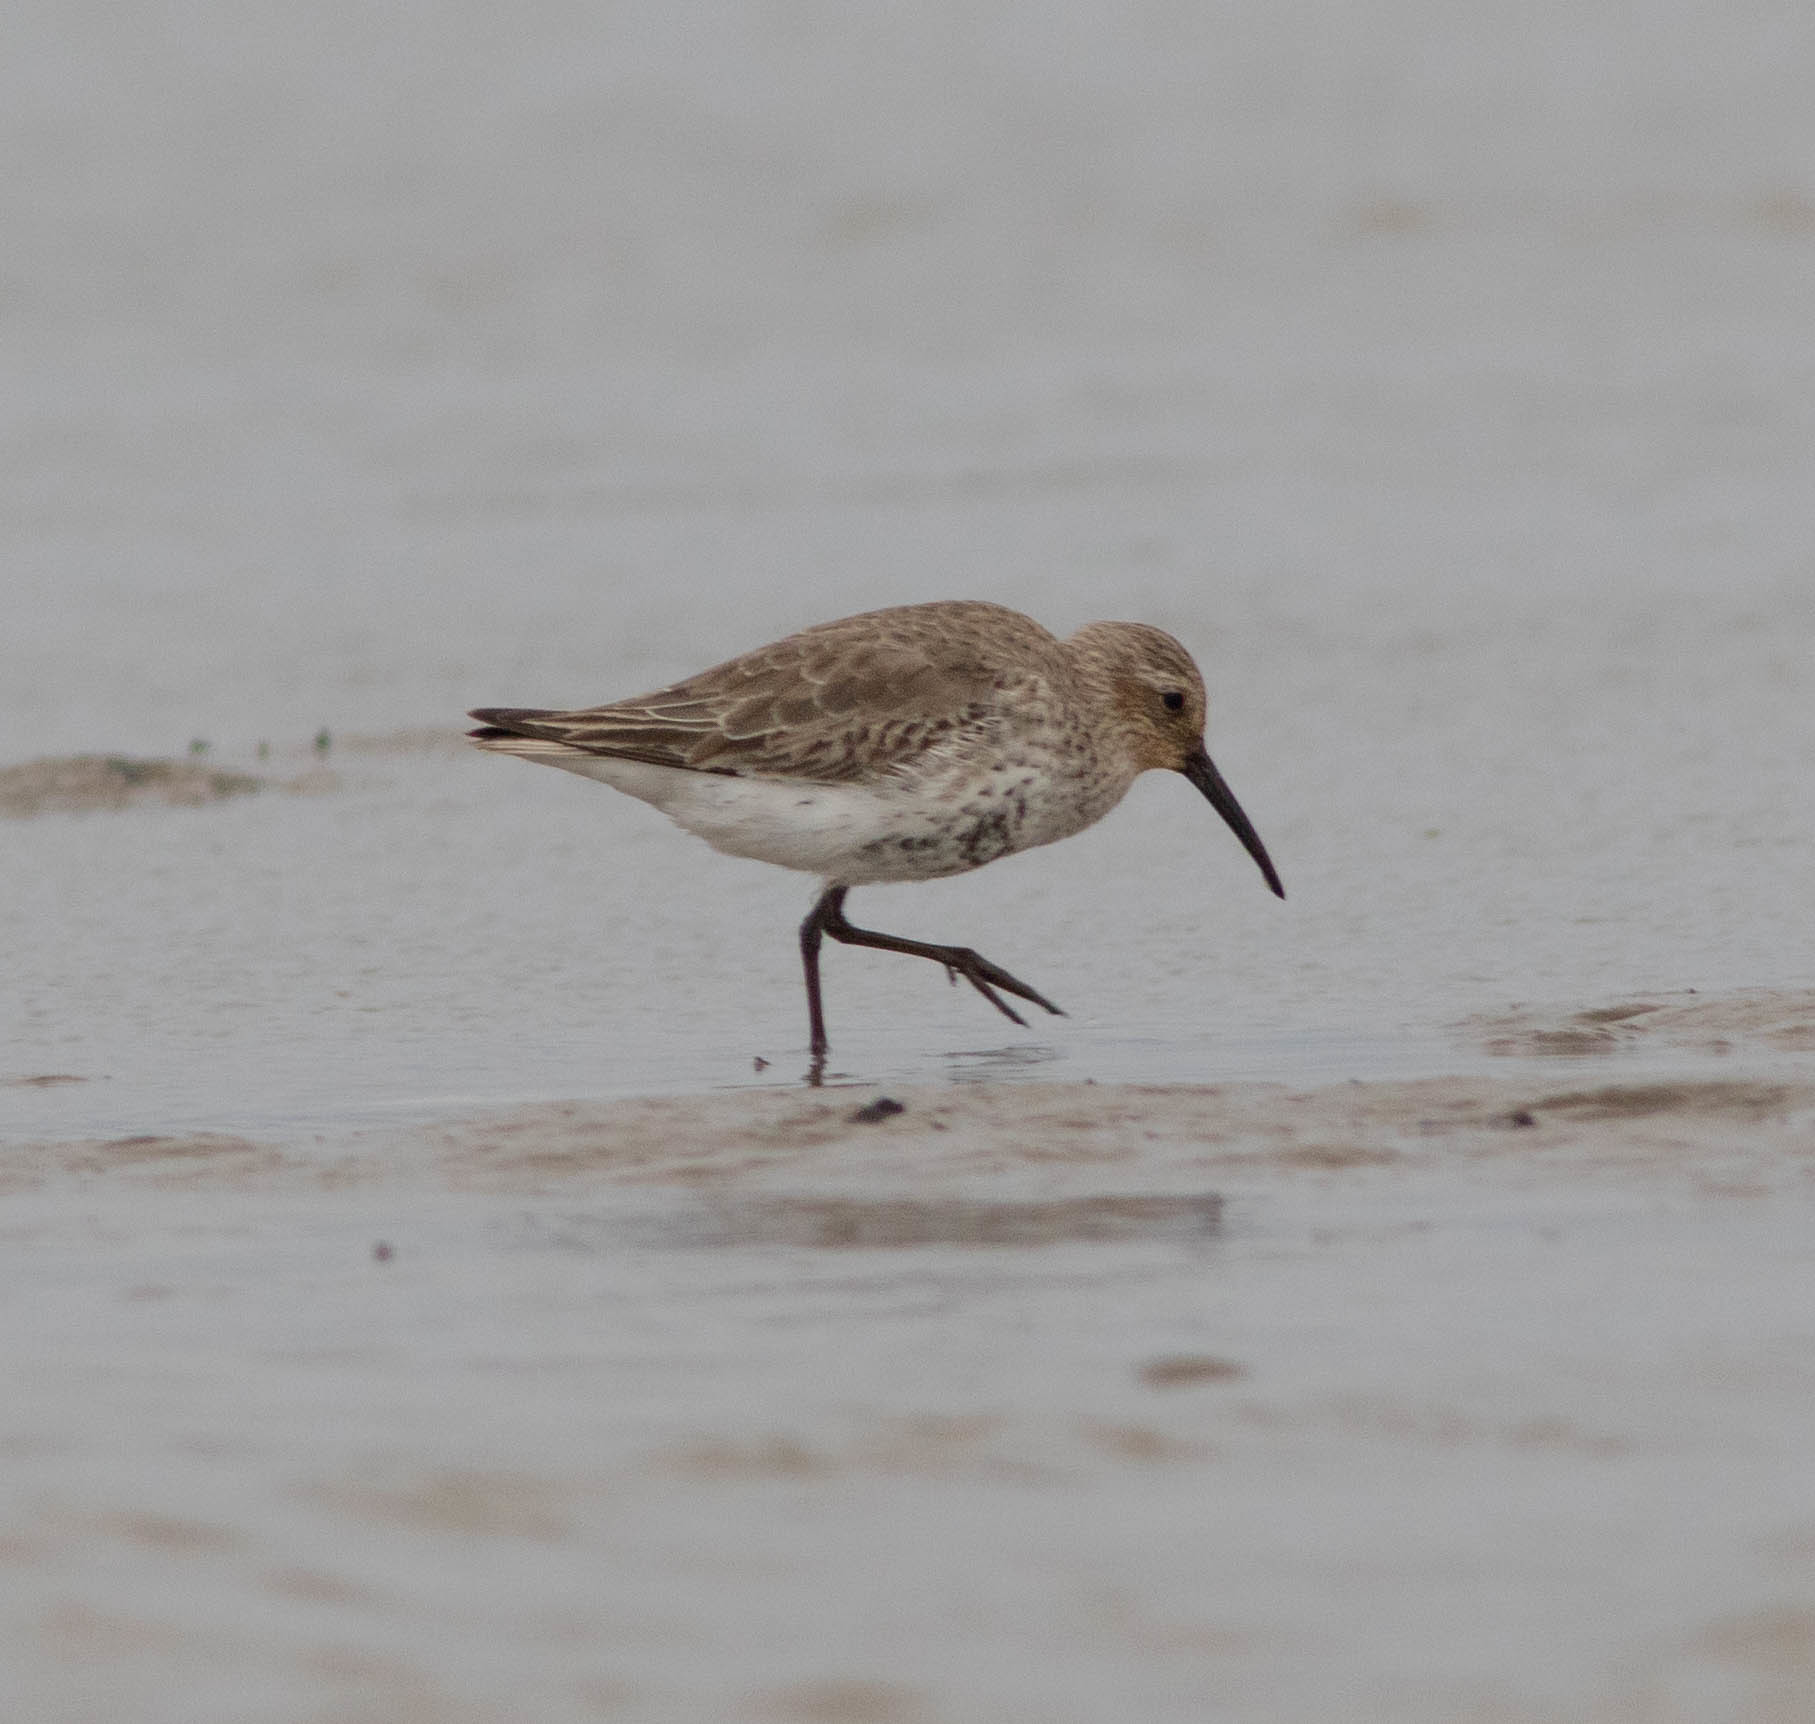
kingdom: Animalia
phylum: Chordata
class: Aves
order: Charadriiformes
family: Scolopacidae
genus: Calidris
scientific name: Calidris alpina
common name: Dunlin
